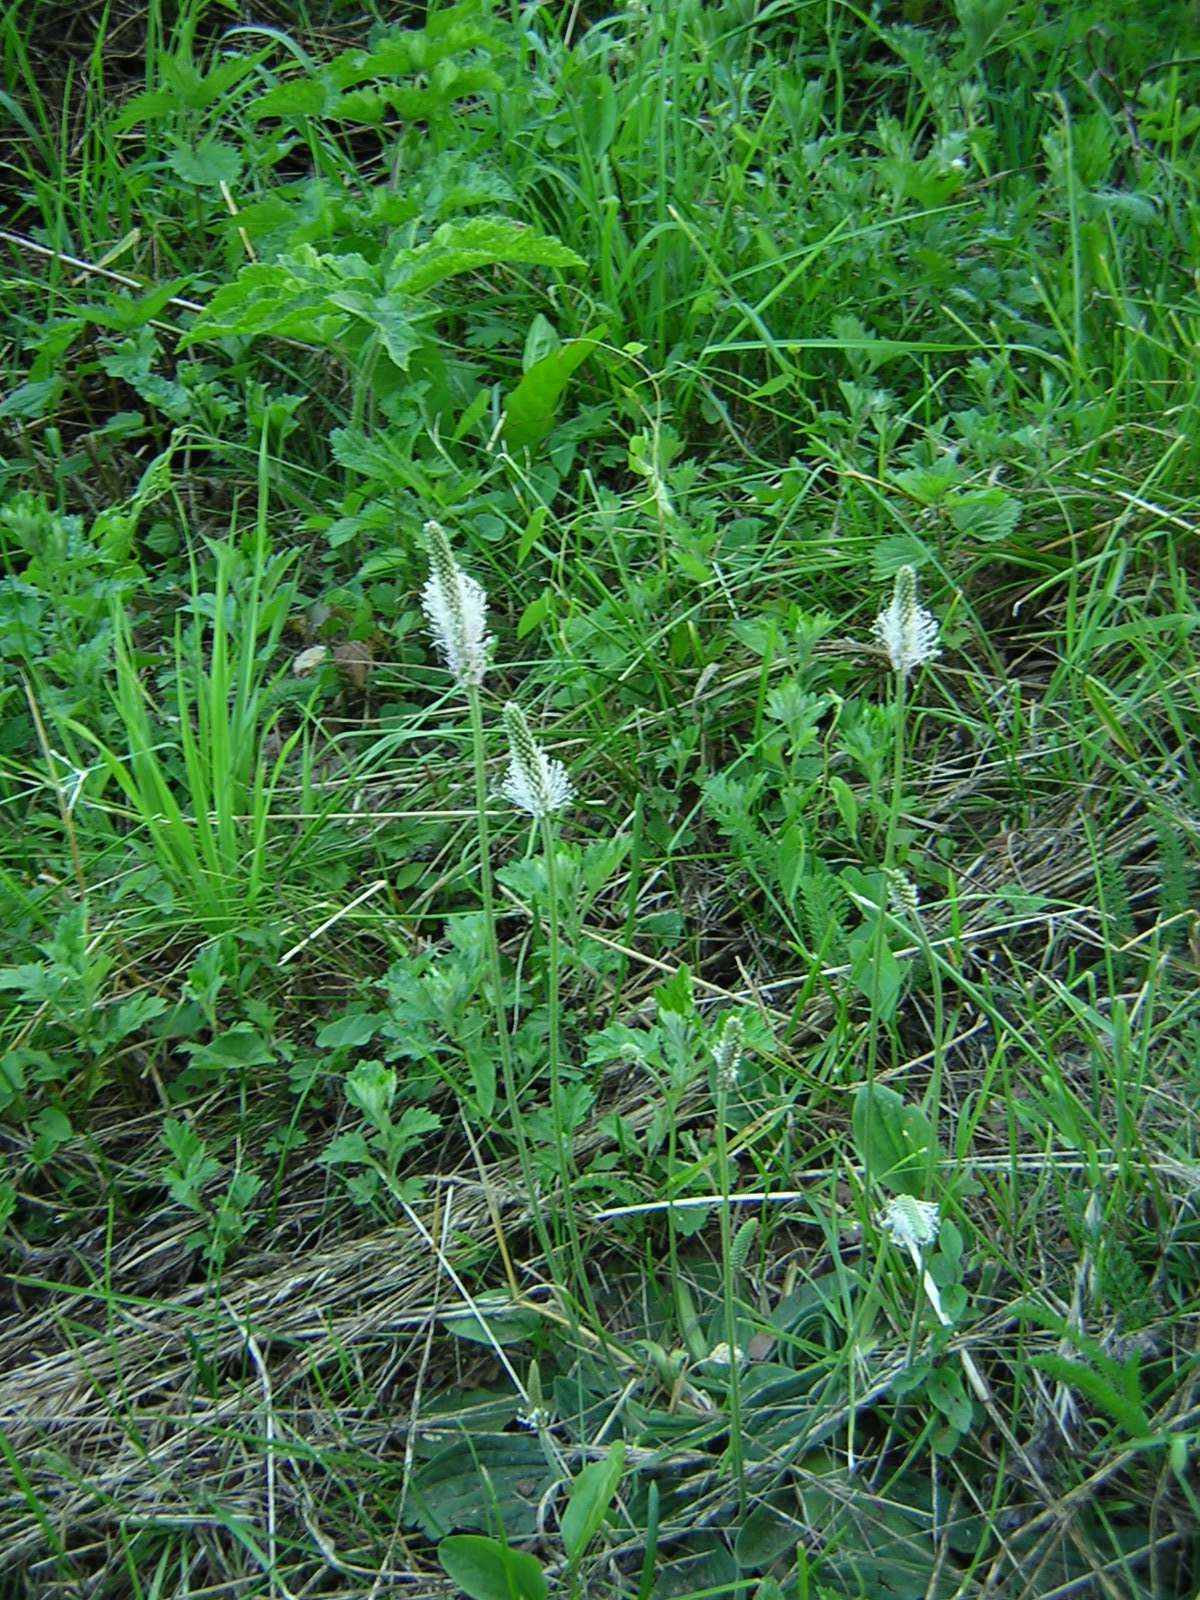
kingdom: Plantae
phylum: Tracheophyta
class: Magnoliopsida
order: Lamiales
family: Plantaginaceae
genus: Plantago
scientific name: Plantago media
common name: Hoary plantain
